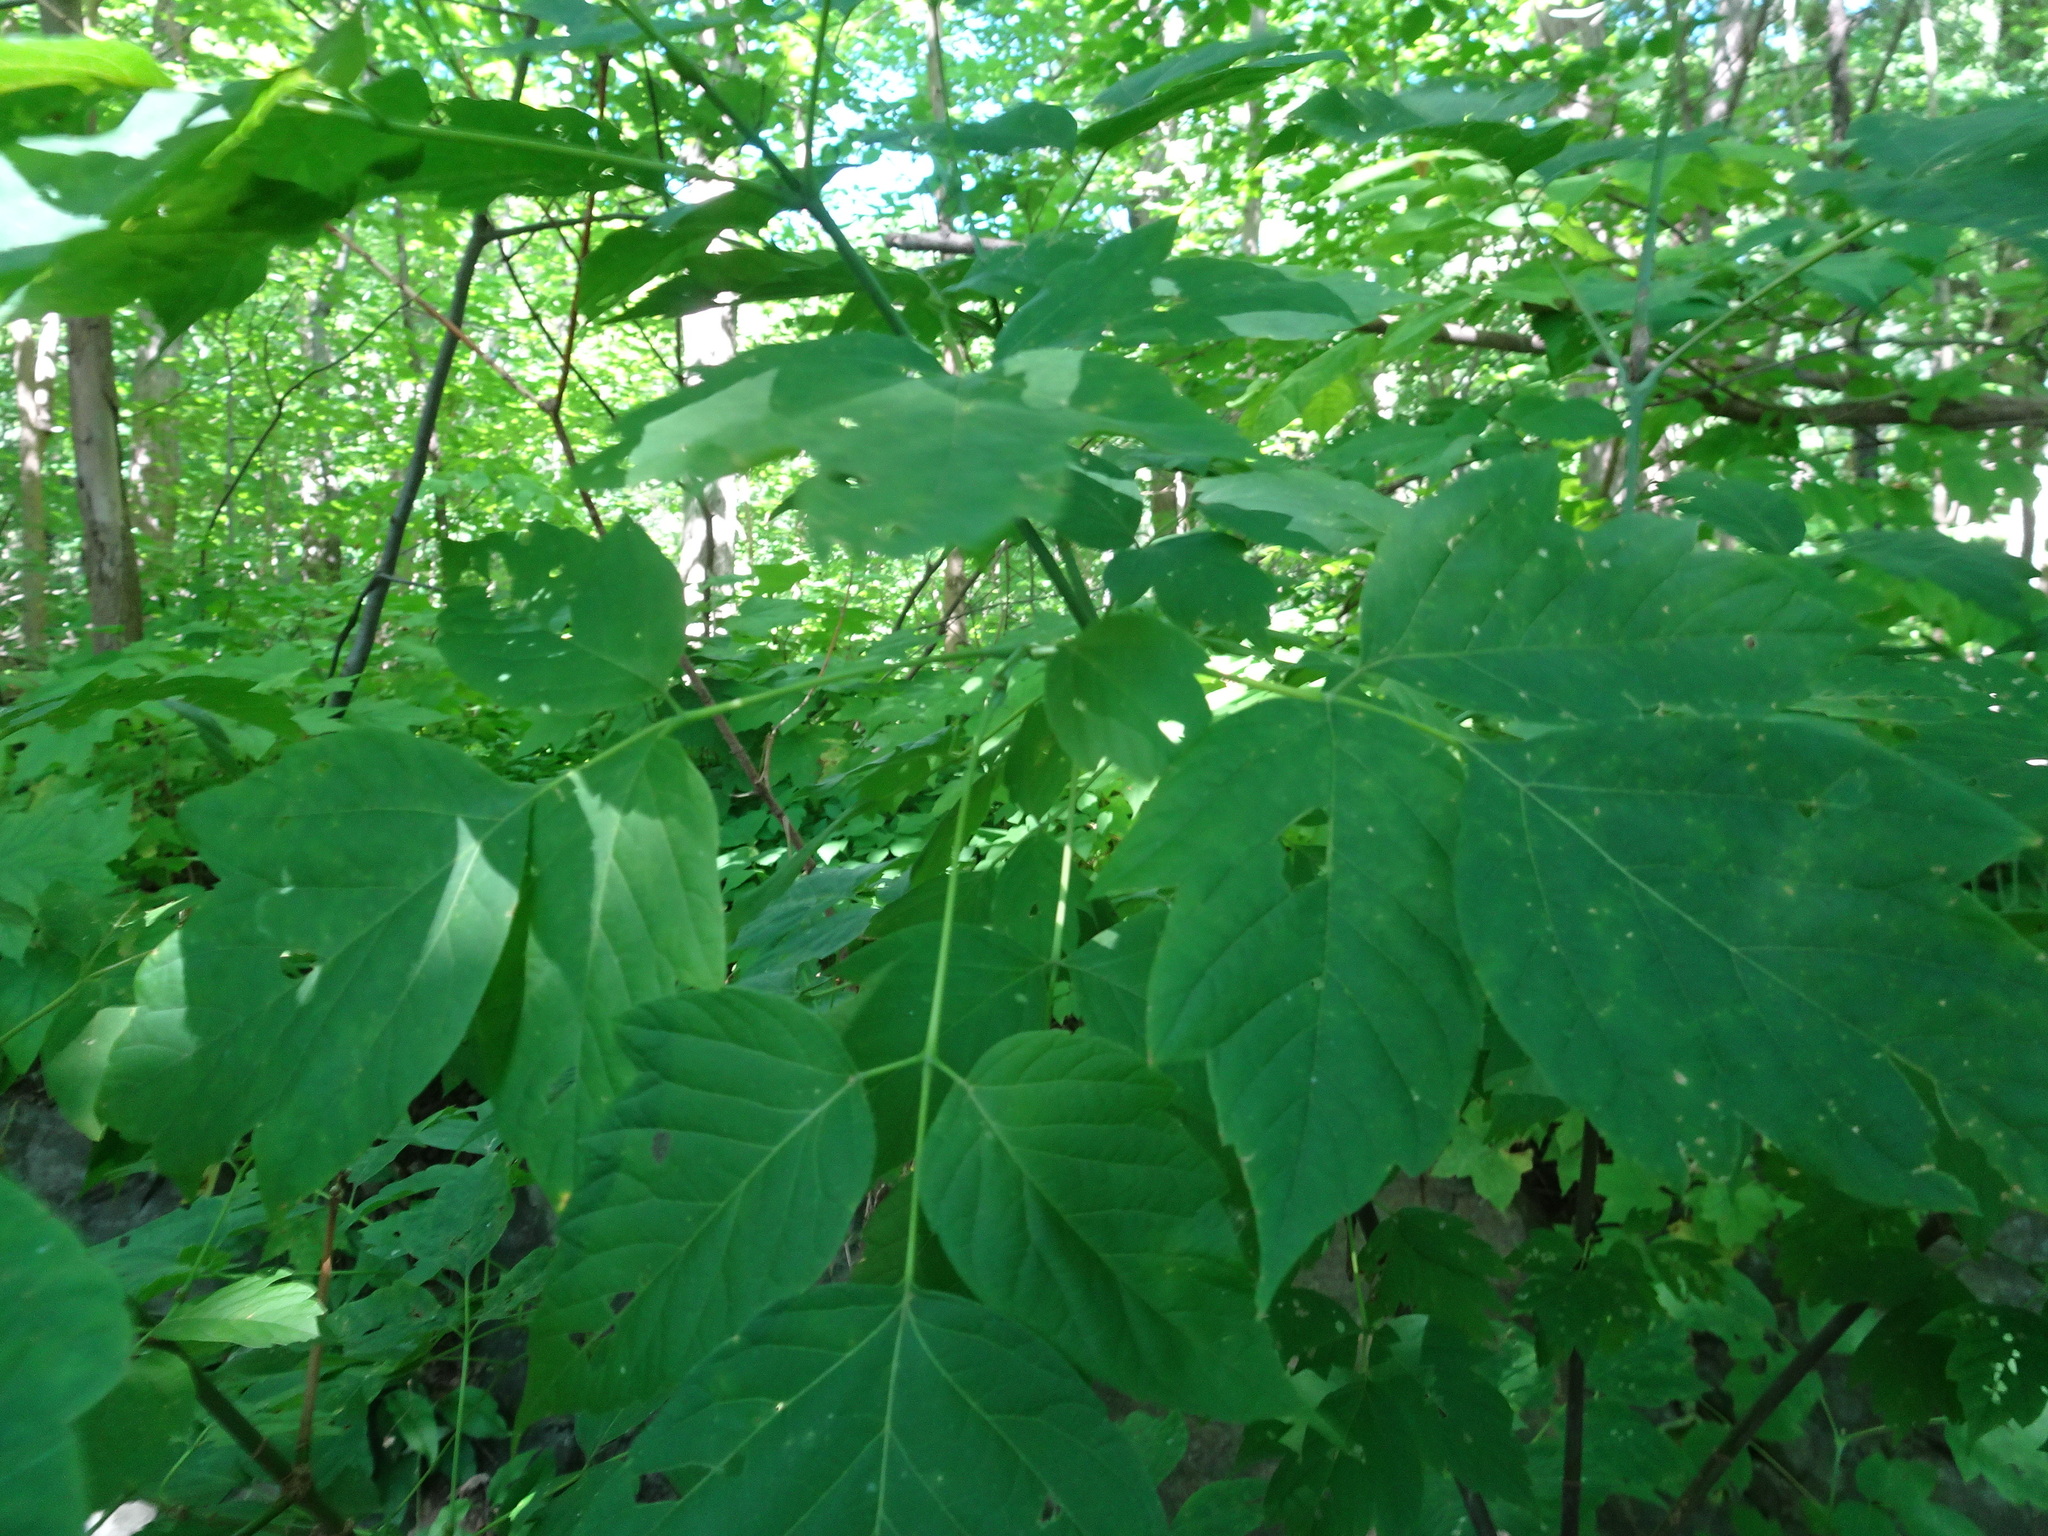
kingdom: Plantae
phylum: Tracheophyta
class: Magnoliopsida
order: Sapindales
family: Sapindaceae
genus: Acer
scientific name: Acer negundo
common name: Ashleaf maple
